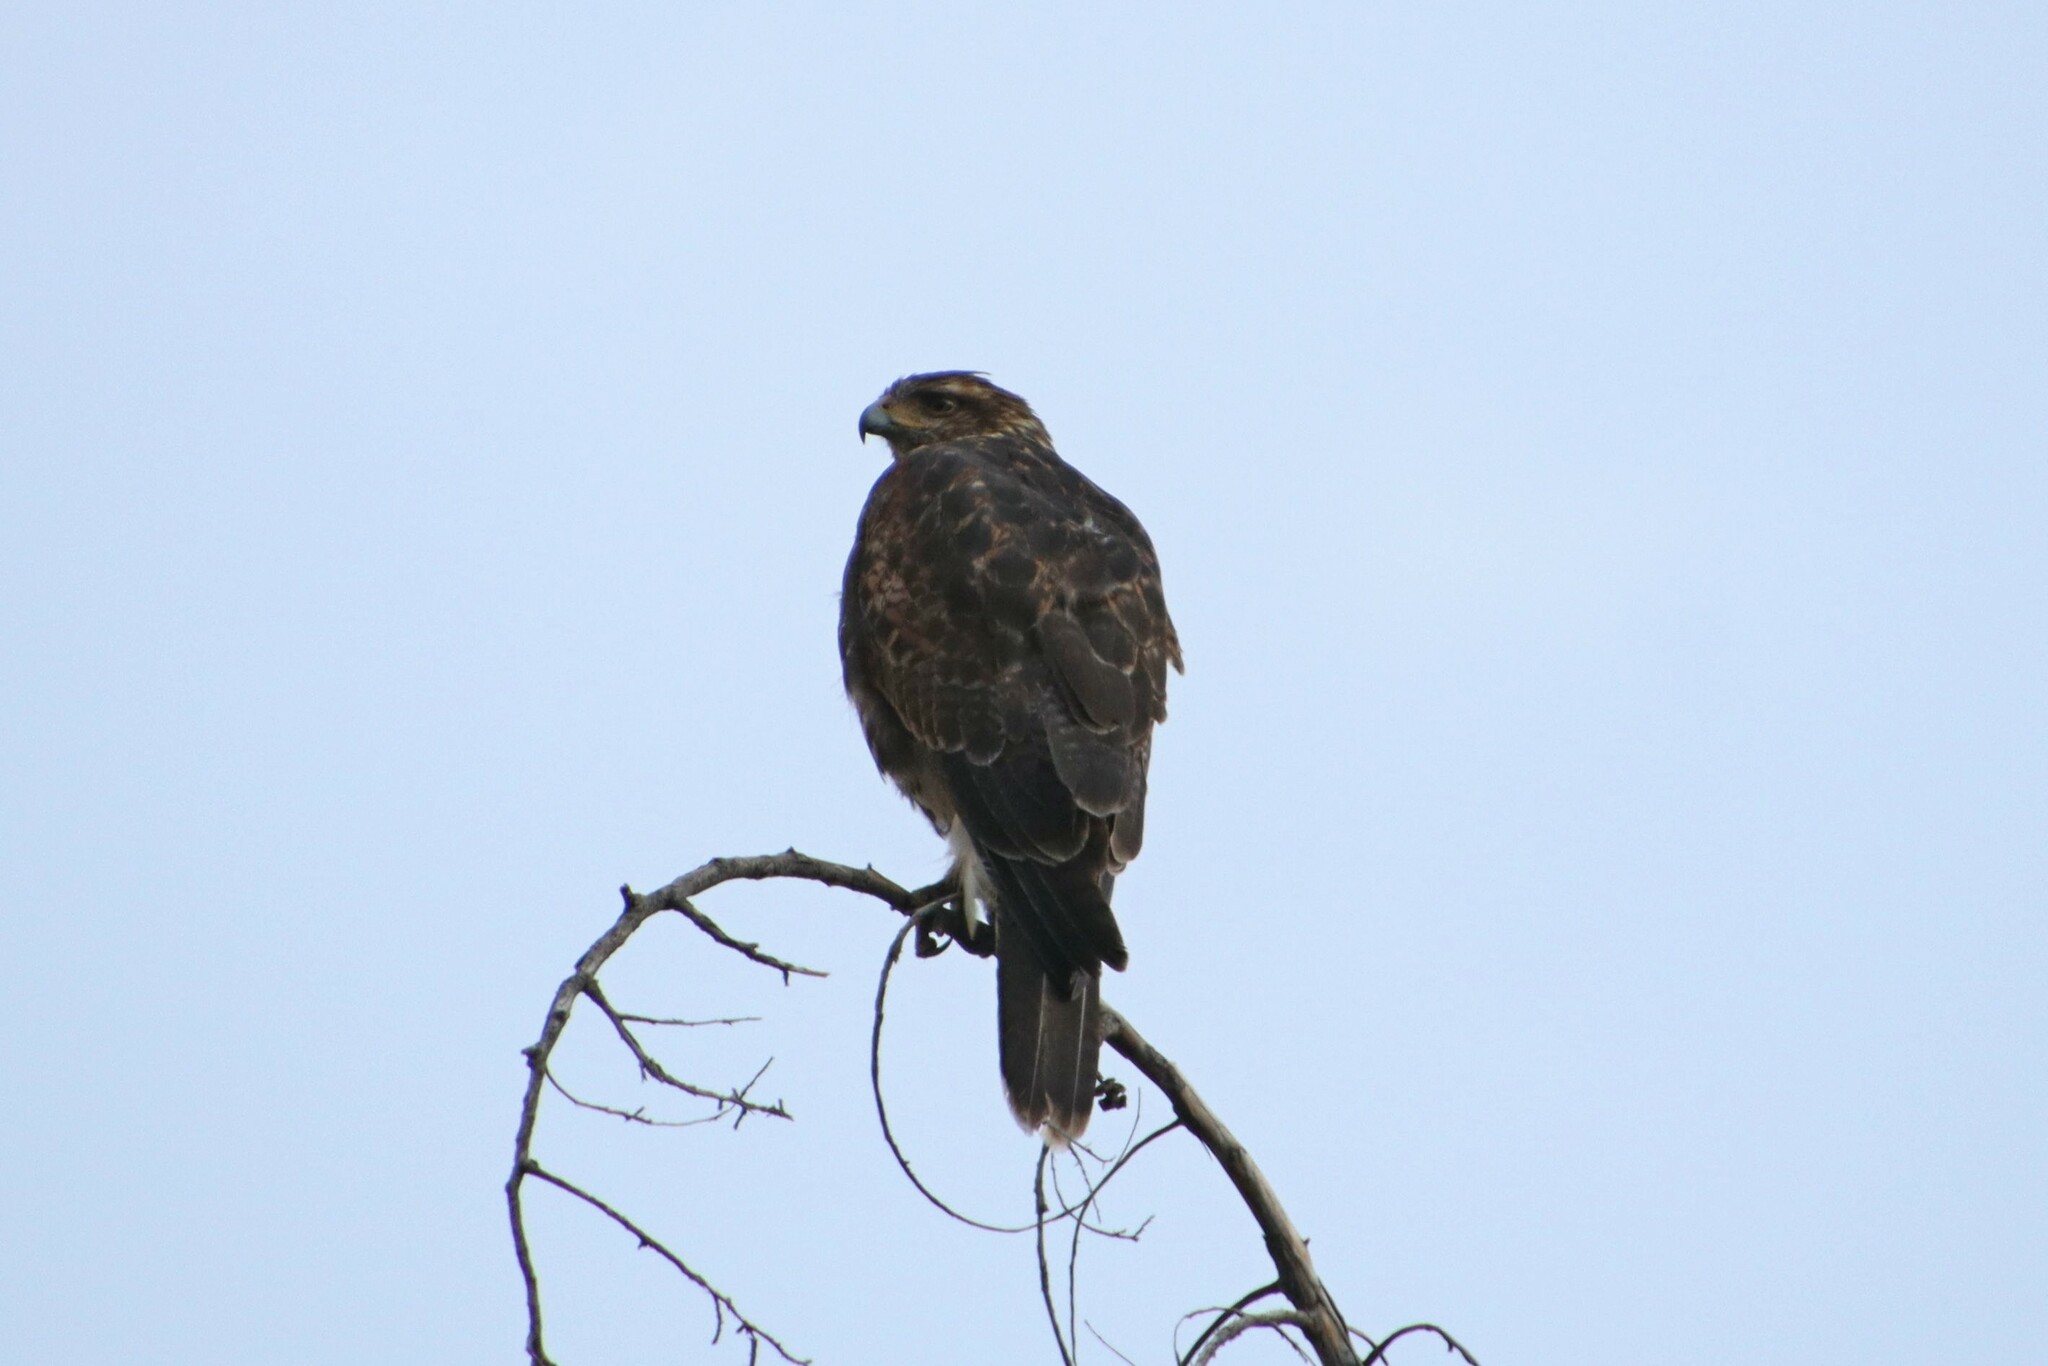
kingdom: Animalia
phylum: Chordata
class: Aves
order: Accipitriformes
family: Accipitridae
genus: Parabuteo
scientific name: Parabuteo unicinctus
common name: Harris's hawk
